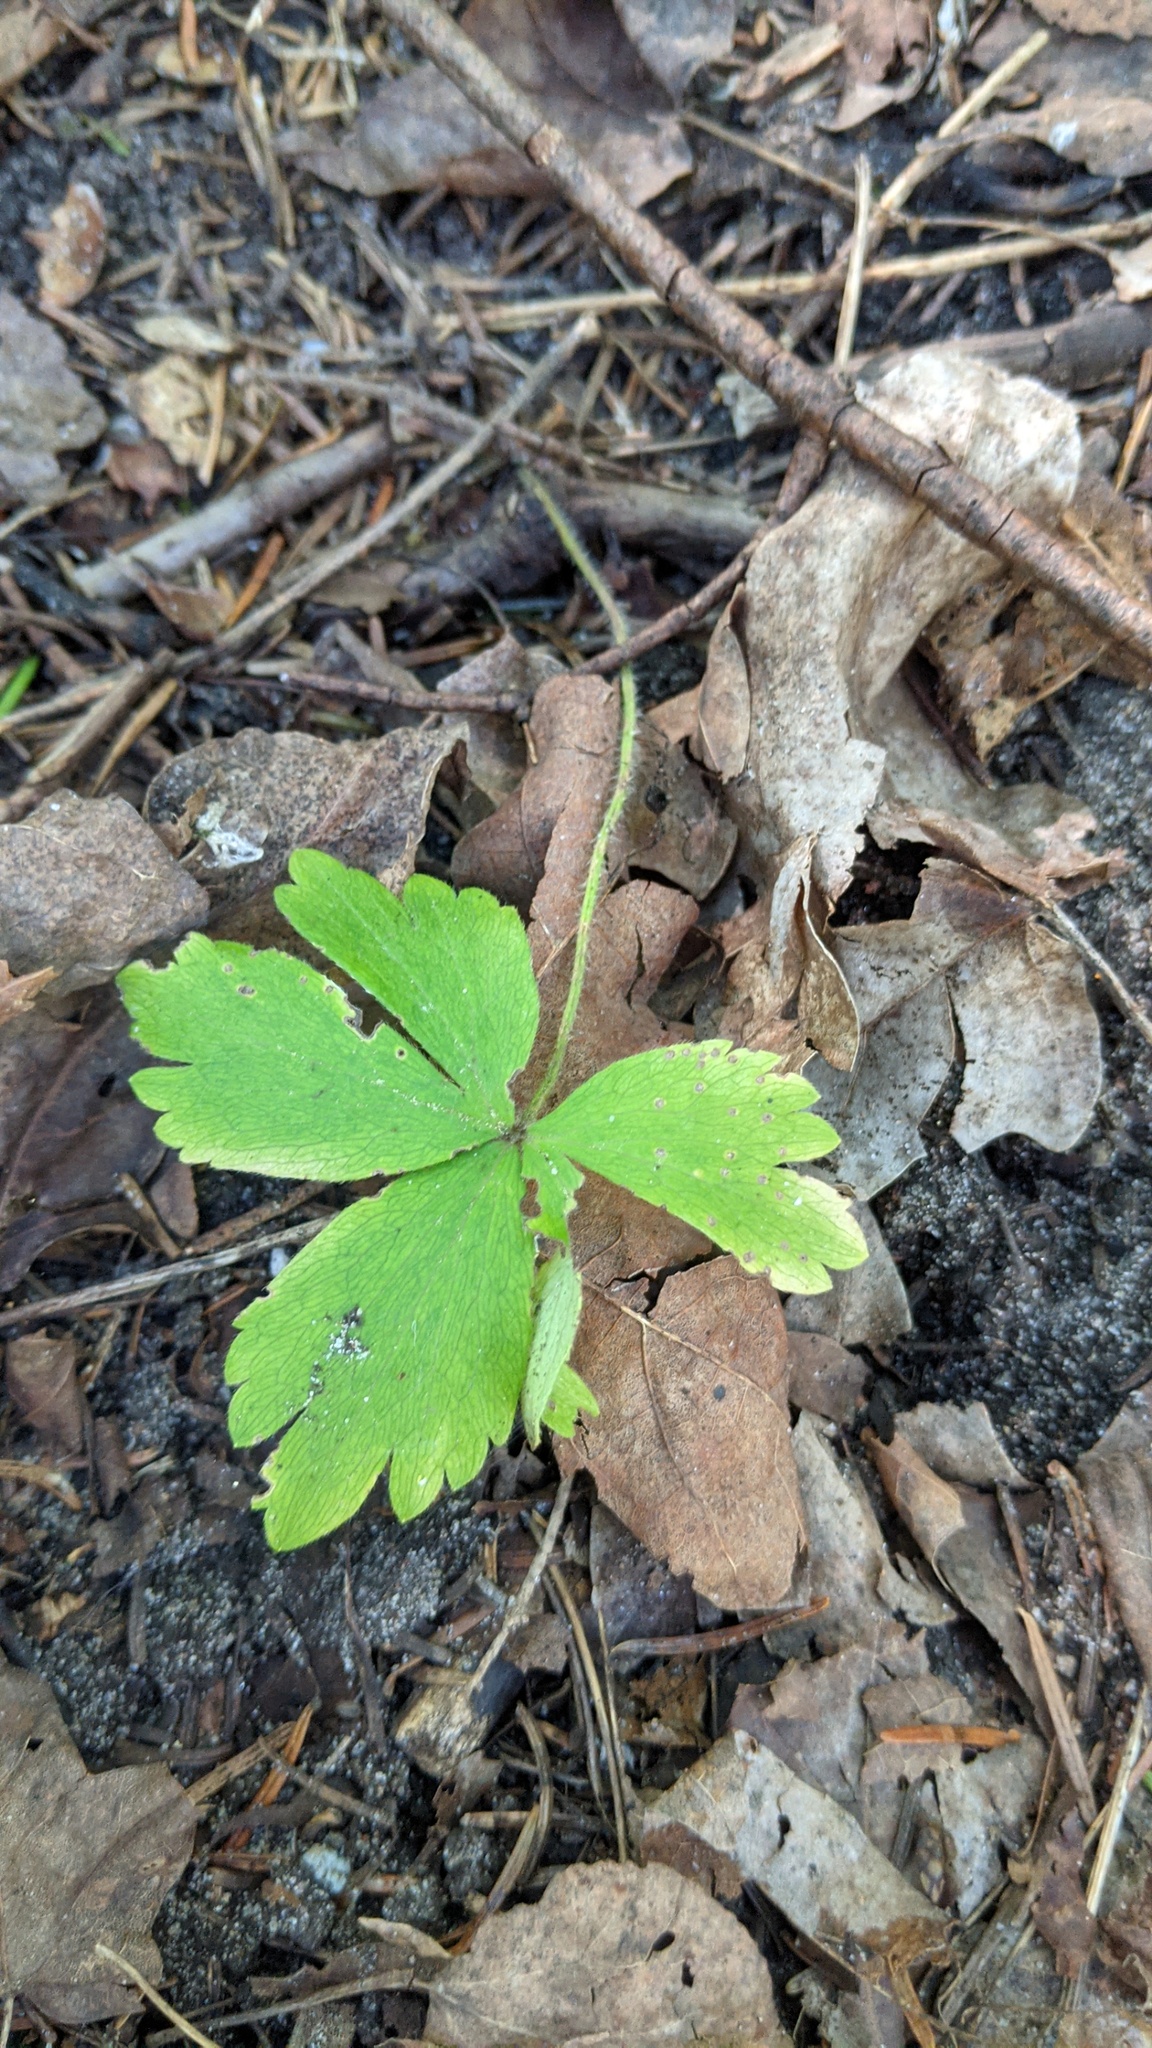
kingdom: Plantae
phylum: Tracheophyta
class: Magnoliopsida
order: Ranunculales
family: Ranunculaceae
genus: Anemone
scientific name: Anemone quinquefolia
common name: Wood anemone
